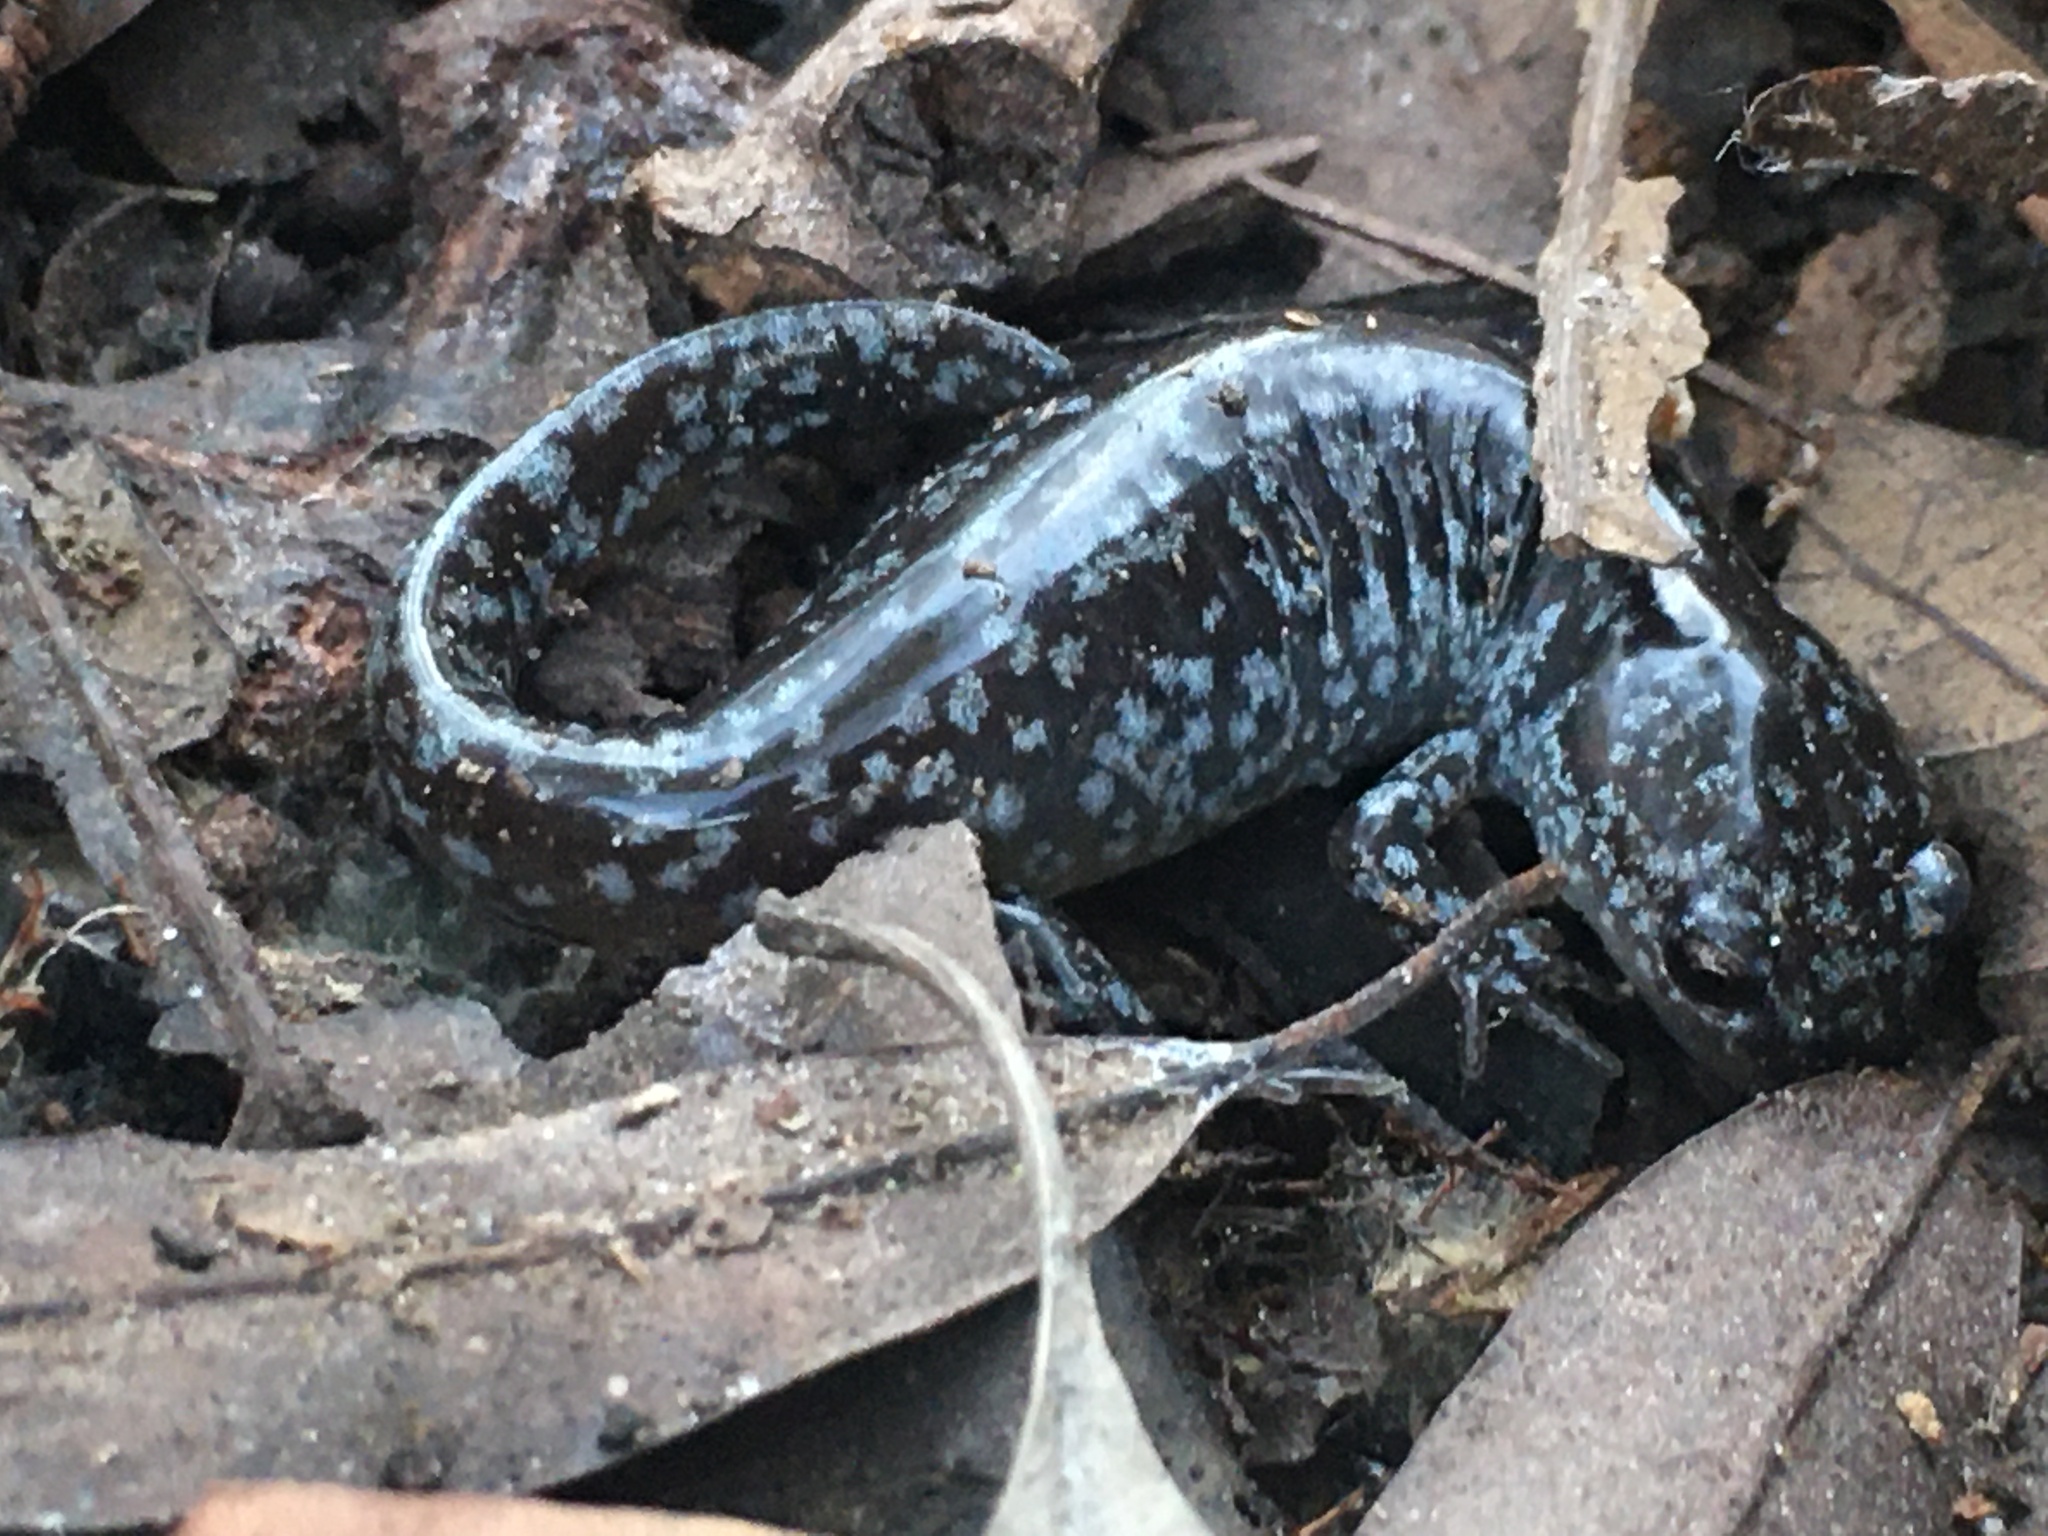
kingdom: Animalia
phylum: Chordata
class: Amphibia
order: Caudata
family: Ambystomatidae
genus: Ambystoma
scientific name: Ambystoma mabeei
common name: Mabee's salamander
